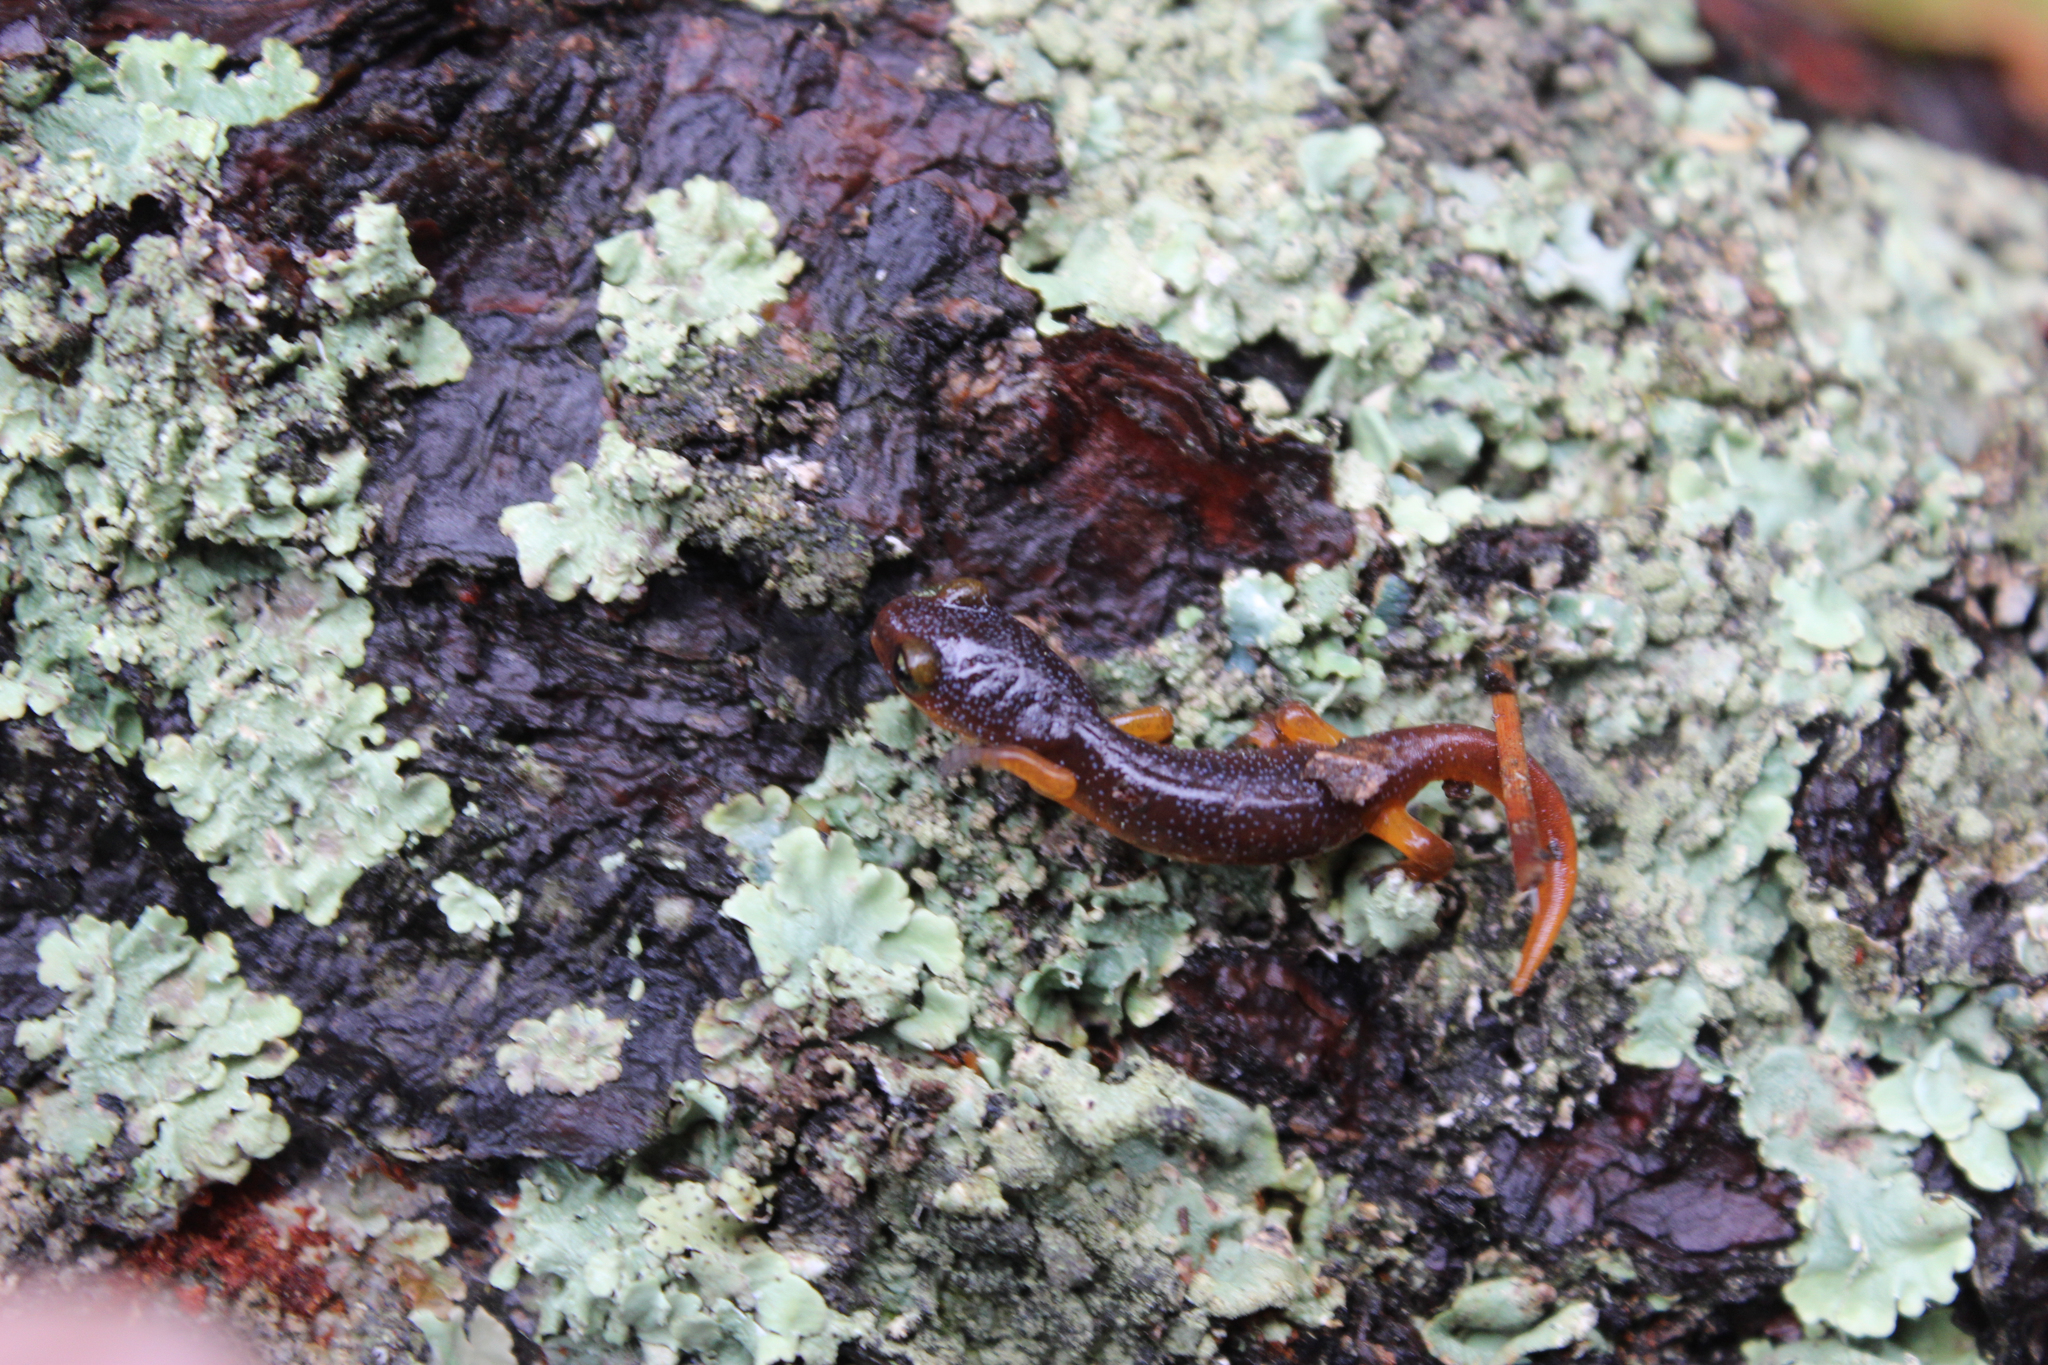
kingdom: Animalia
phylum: Chordata
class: Amphibia
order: Caudata
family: Plethodontidae
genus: Ensatina
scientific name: Ensatina eschscholtzii
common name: Ensatina
